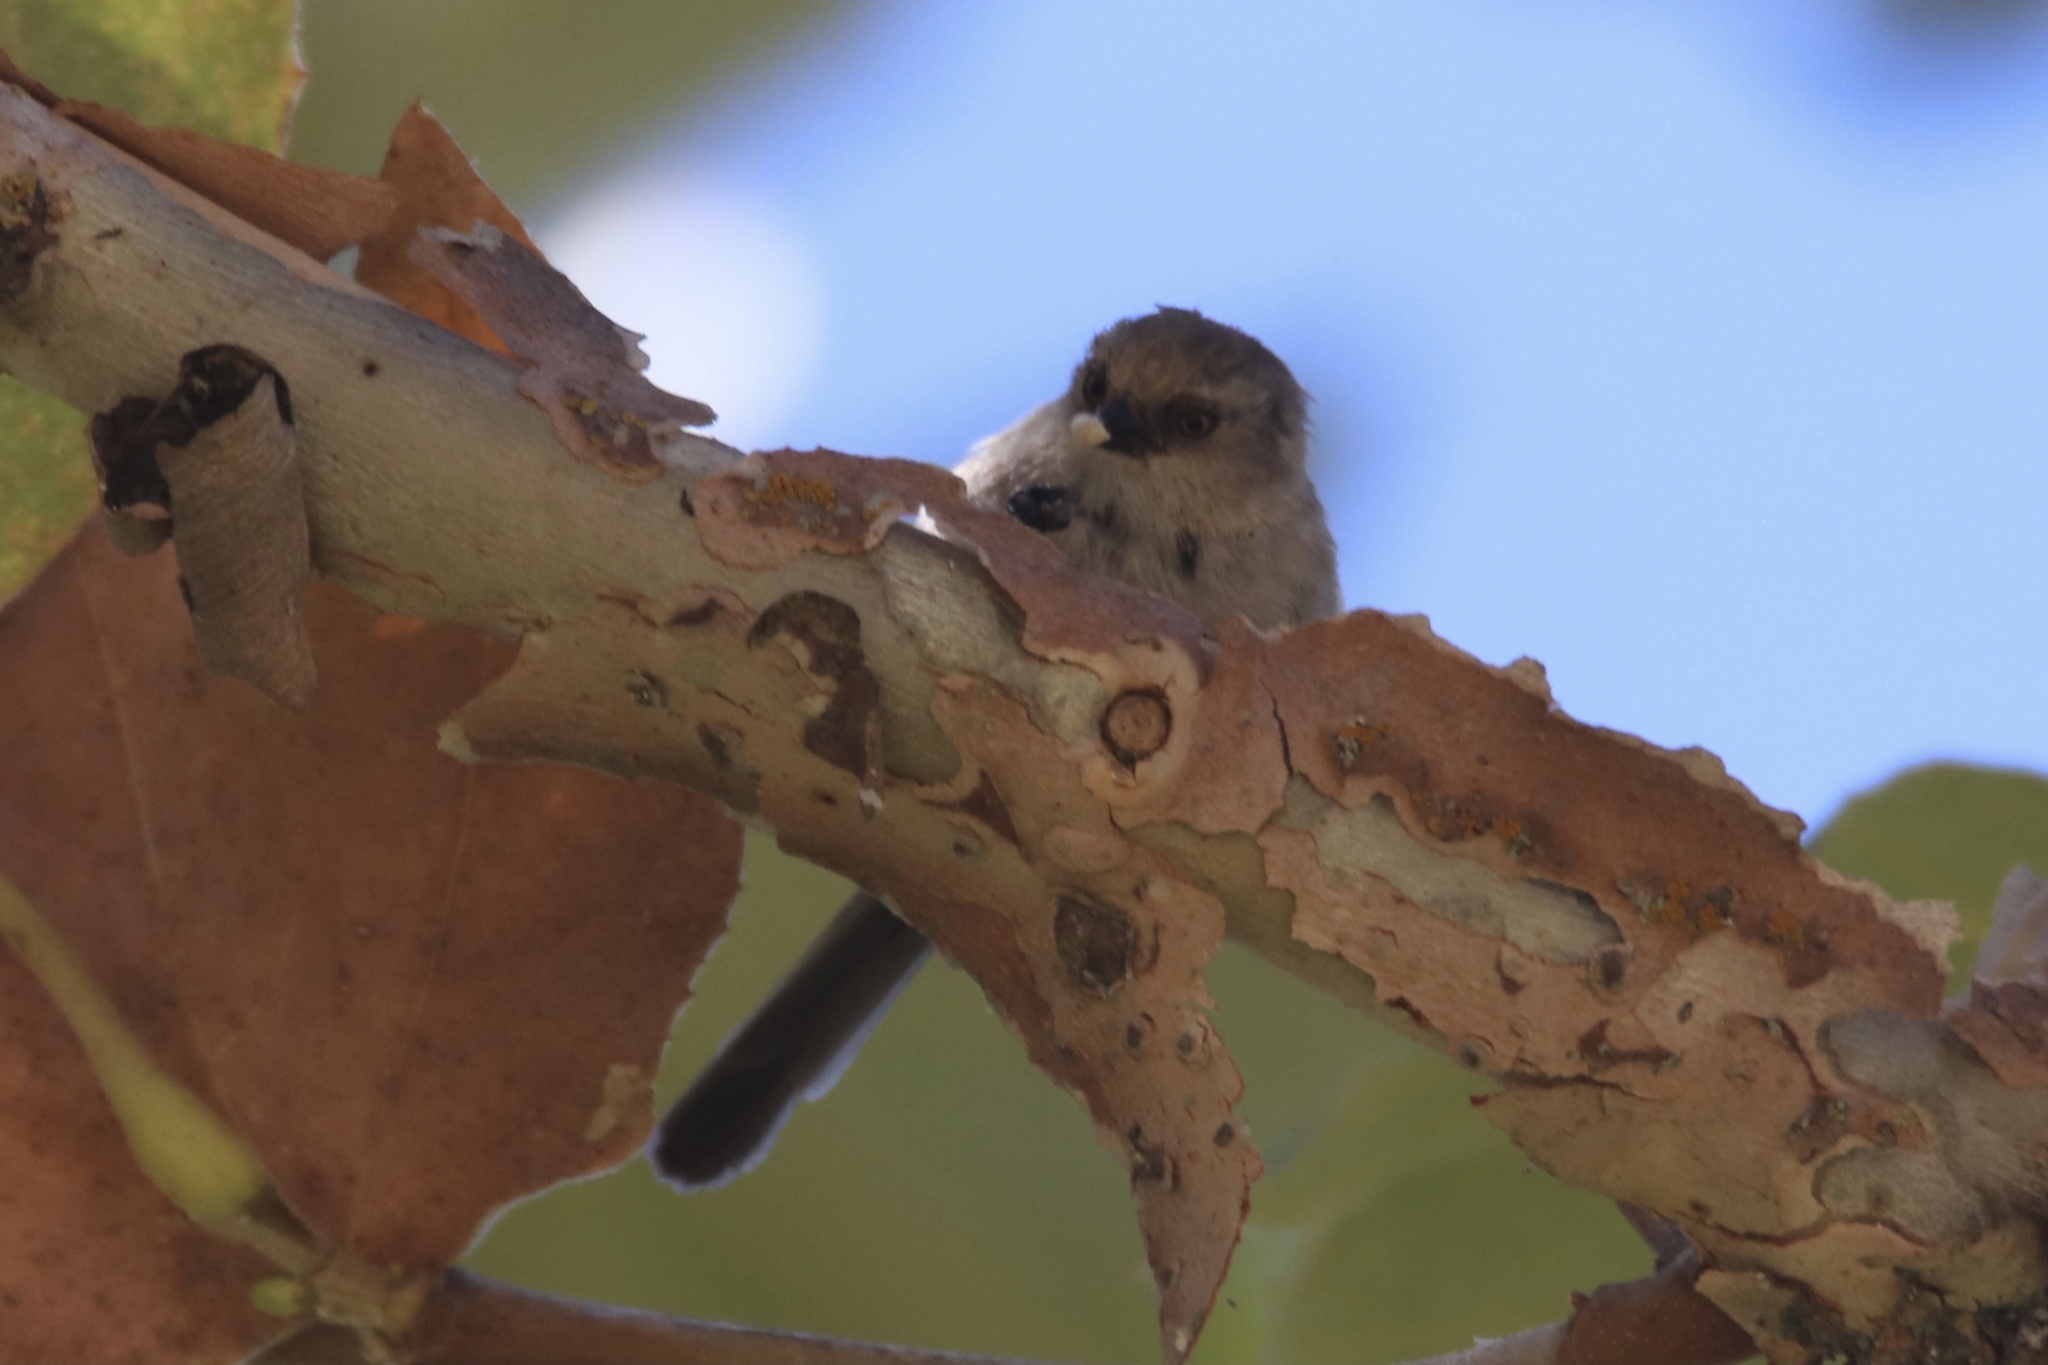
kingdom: Animalia
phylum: Chordata
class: Aves
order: Passeriformes
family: Aegithalidae
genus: Psaltriparus
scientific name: Psaltriparus minimus
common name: American bushtit
